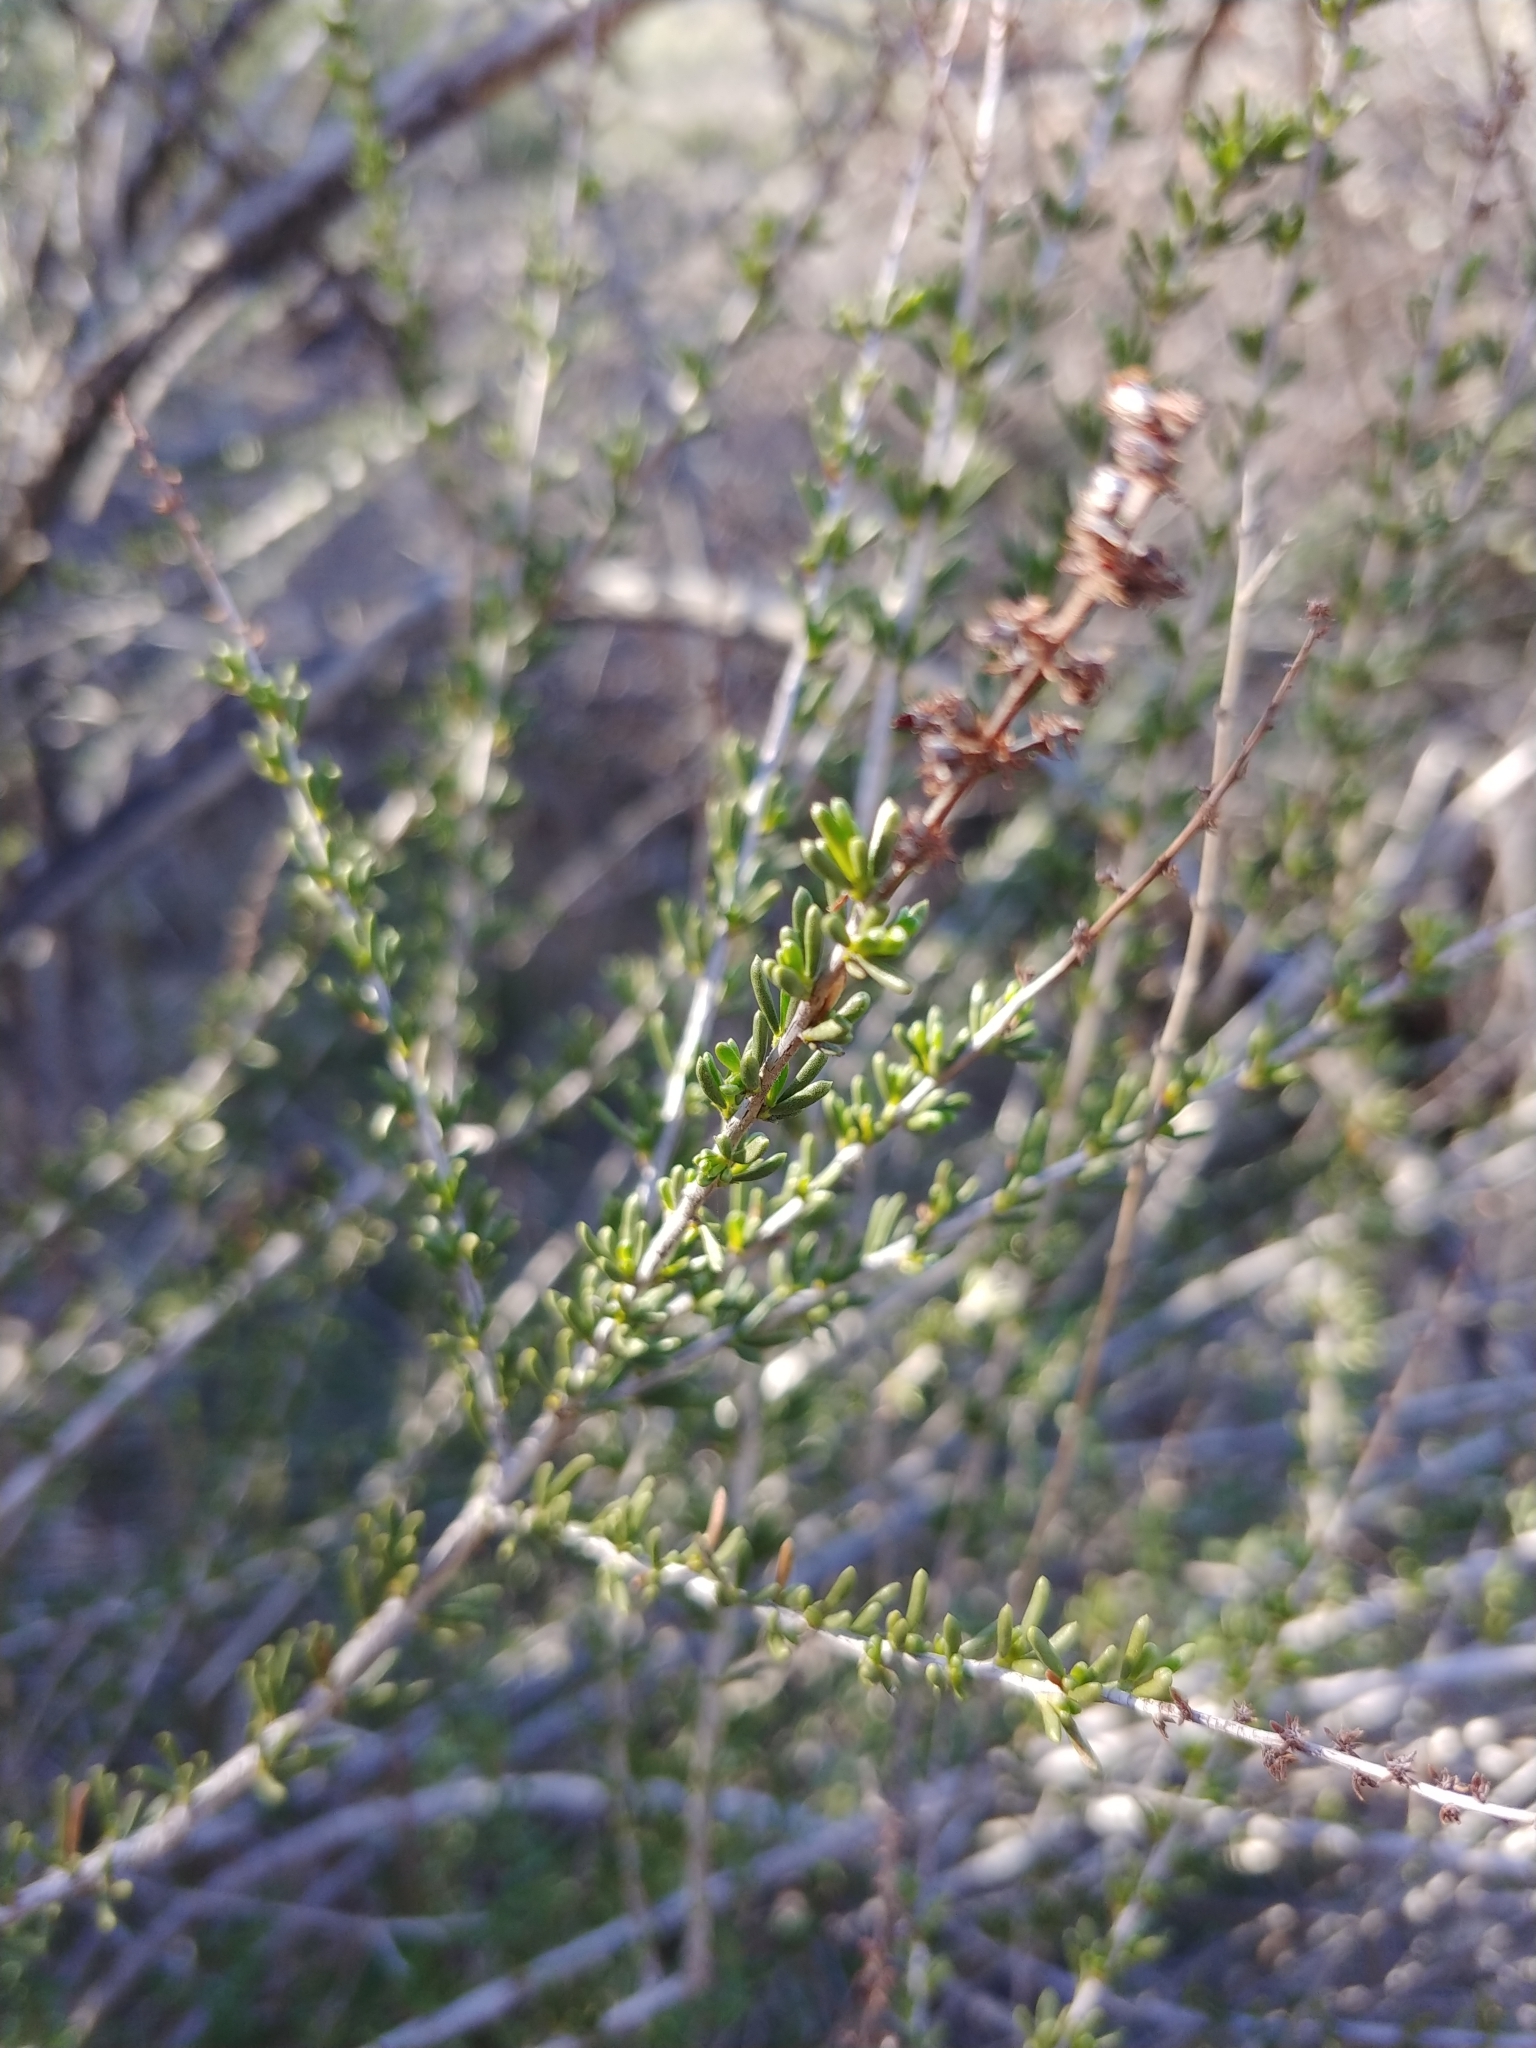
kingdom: Plantae
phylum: Tracheophyta
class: Magnoliopsida
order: Rosales
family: Rosaceae
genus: Adenostoma
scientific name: Adenostoma fasciculatum
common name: Chamise
